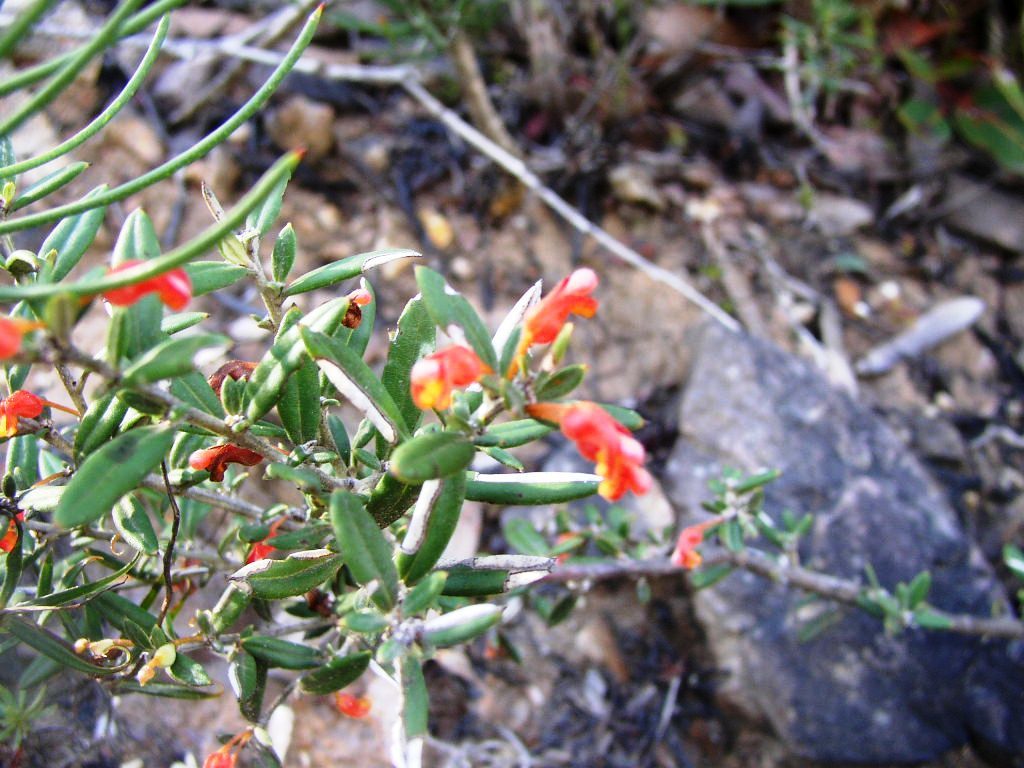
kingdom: Plantae
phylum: Tracheophyta
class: Magnoliopsida
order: Proteales
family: Proteaceae
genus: Grevillea
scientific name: Grevillea depauperata
